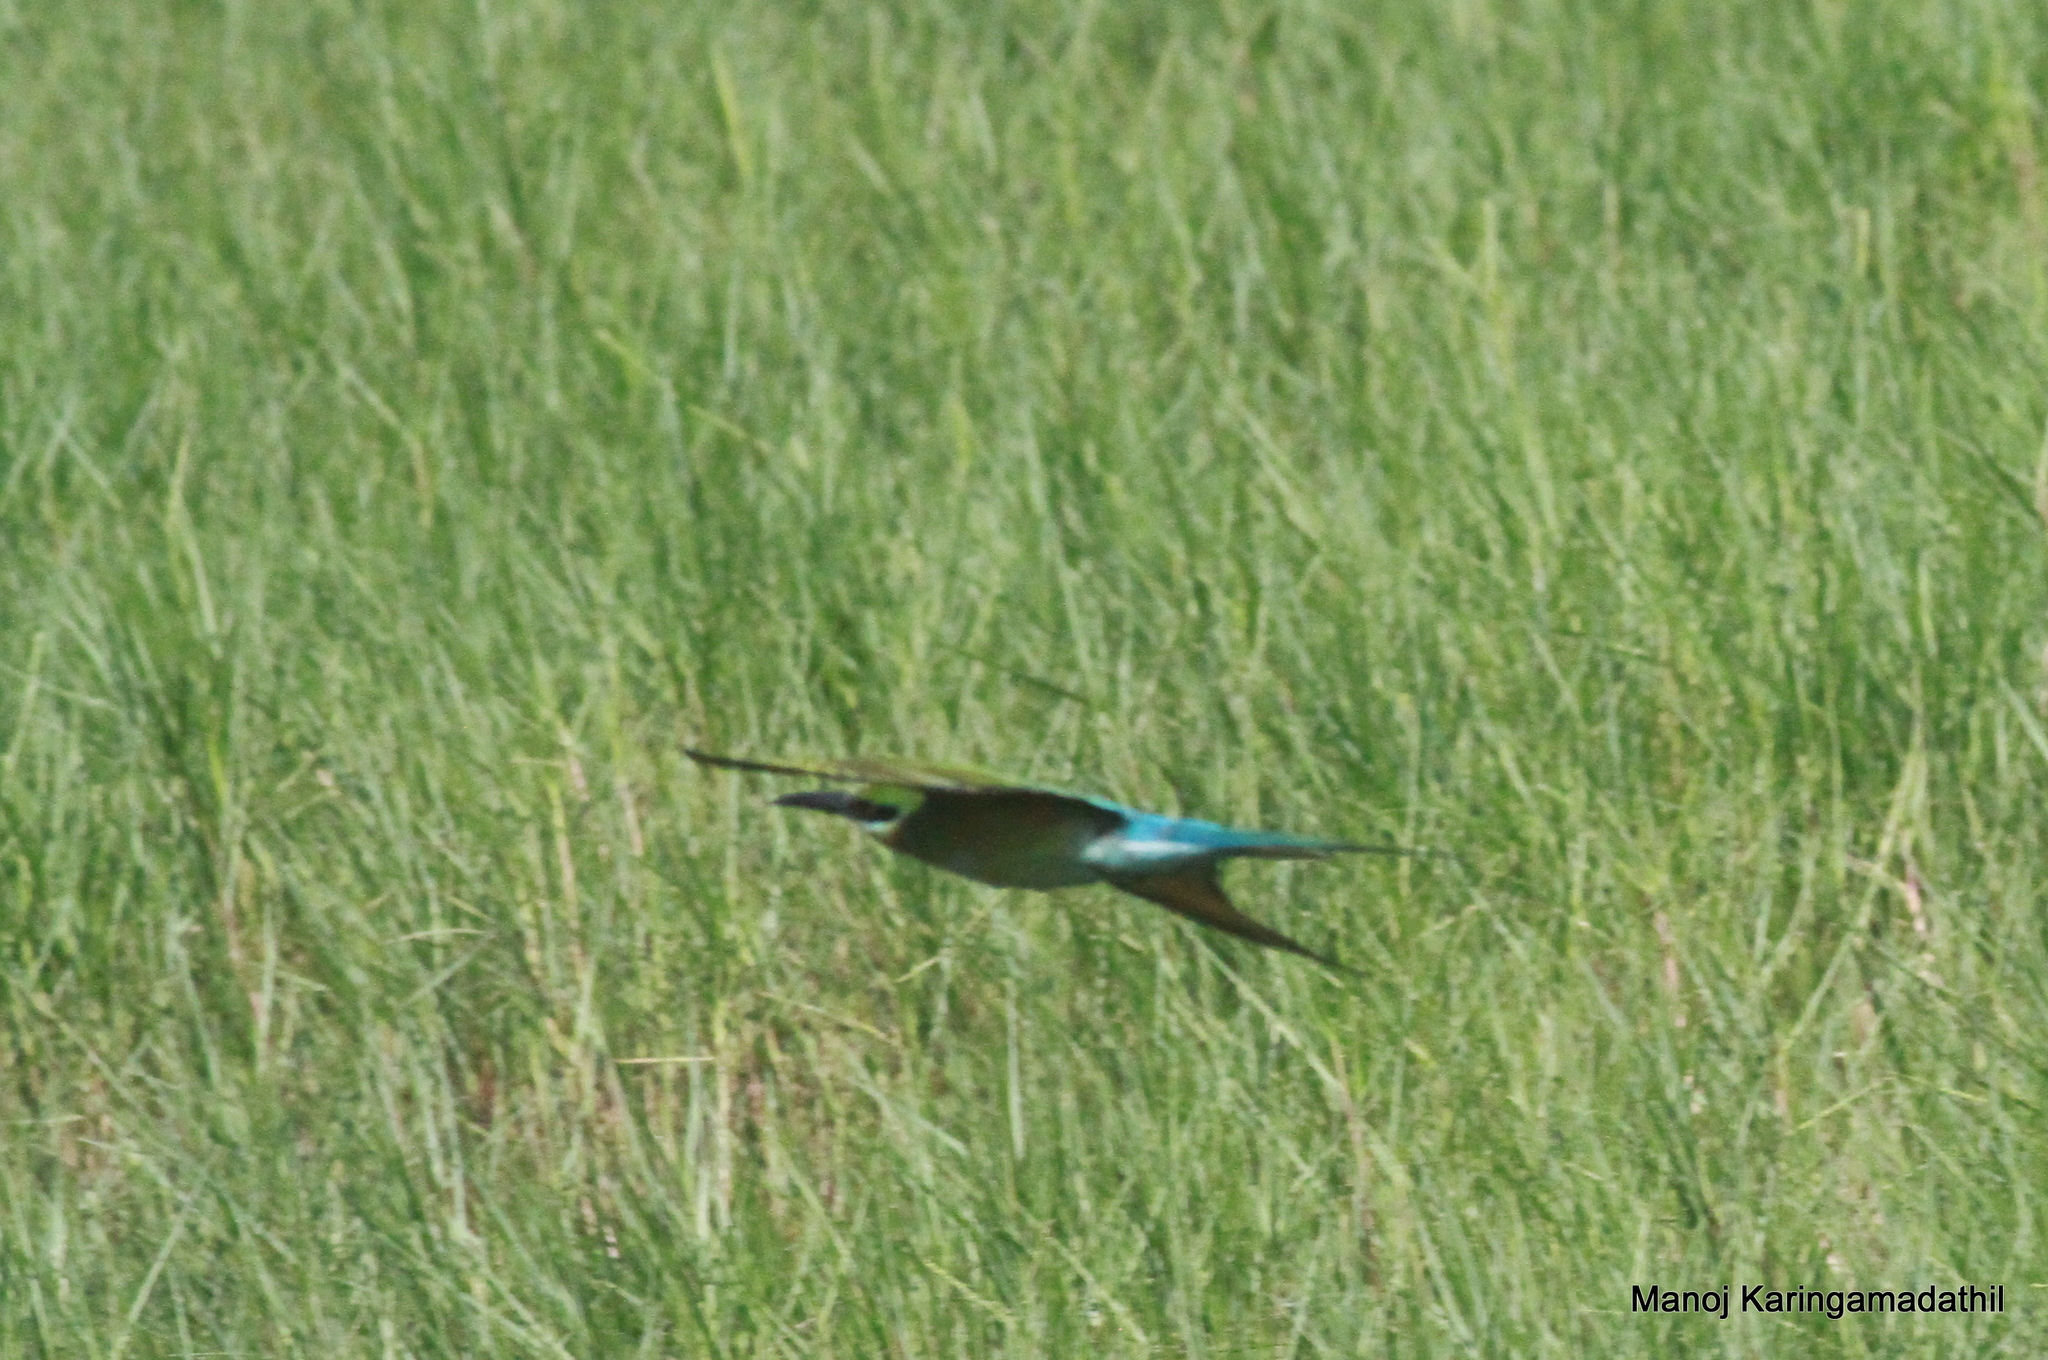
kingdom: Animalia
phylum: Chordata
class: Aves
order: Coraciiformes
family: Meropidae
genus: Merops
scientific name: Merops philippinus
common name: Blue-tailed bee-eater
